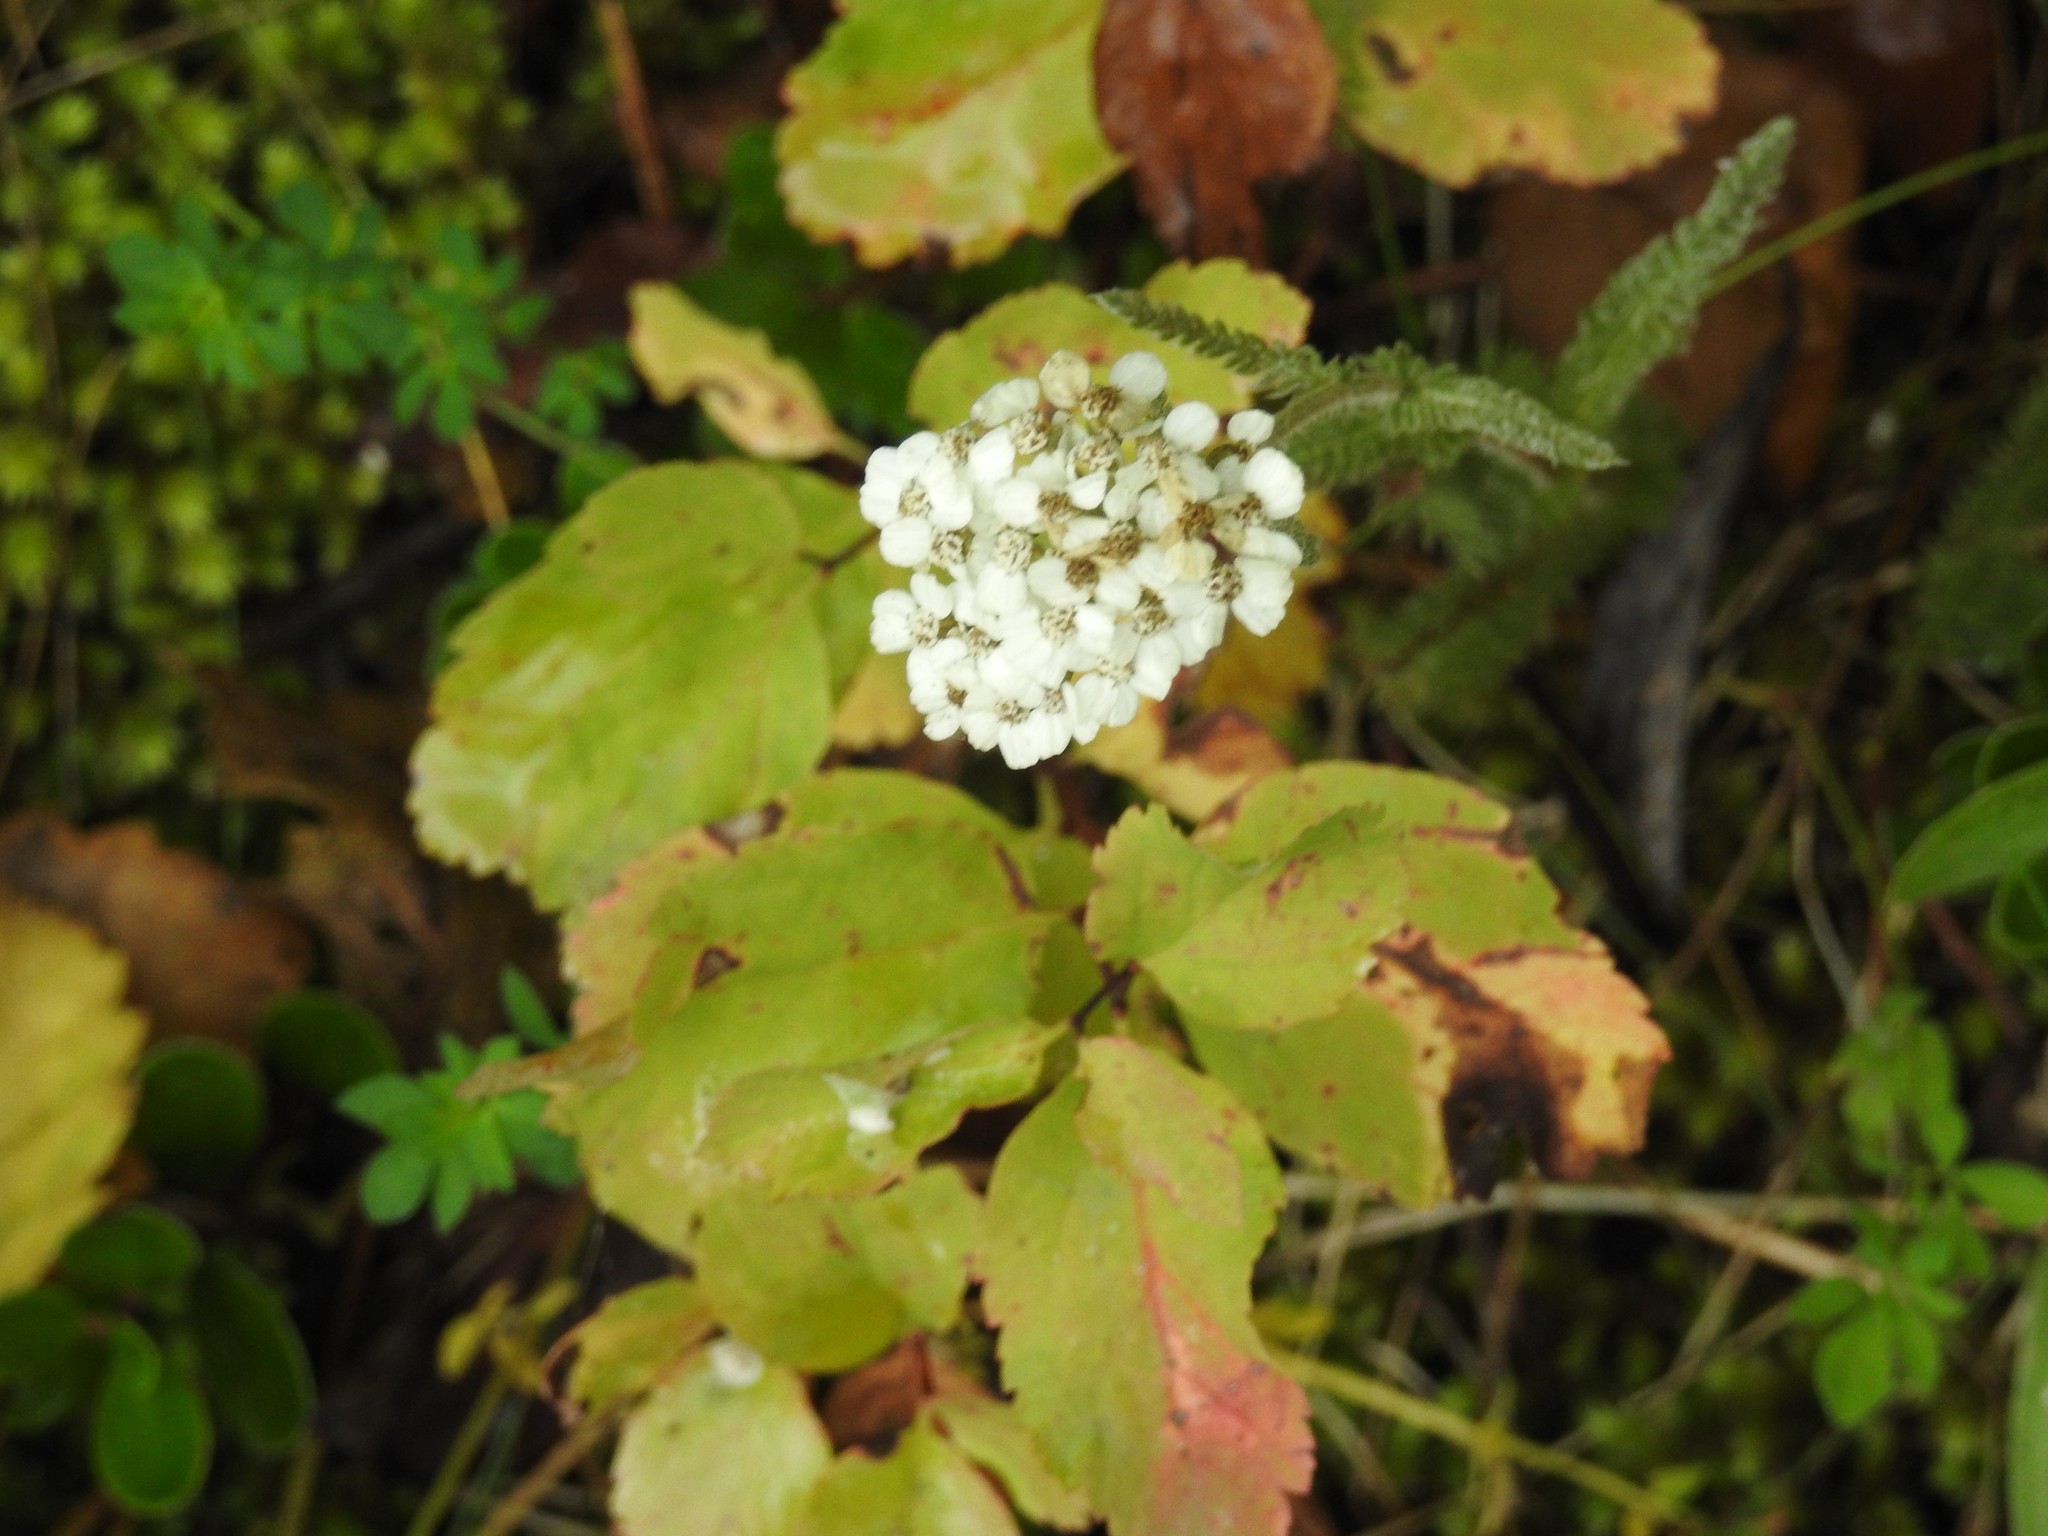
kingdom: Plantae
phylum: Tracheophyta
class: Magnoliopsida
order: Asterales
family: Asteraceae
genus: Achillea
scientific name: Achillea millefolium
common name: Yarrow
